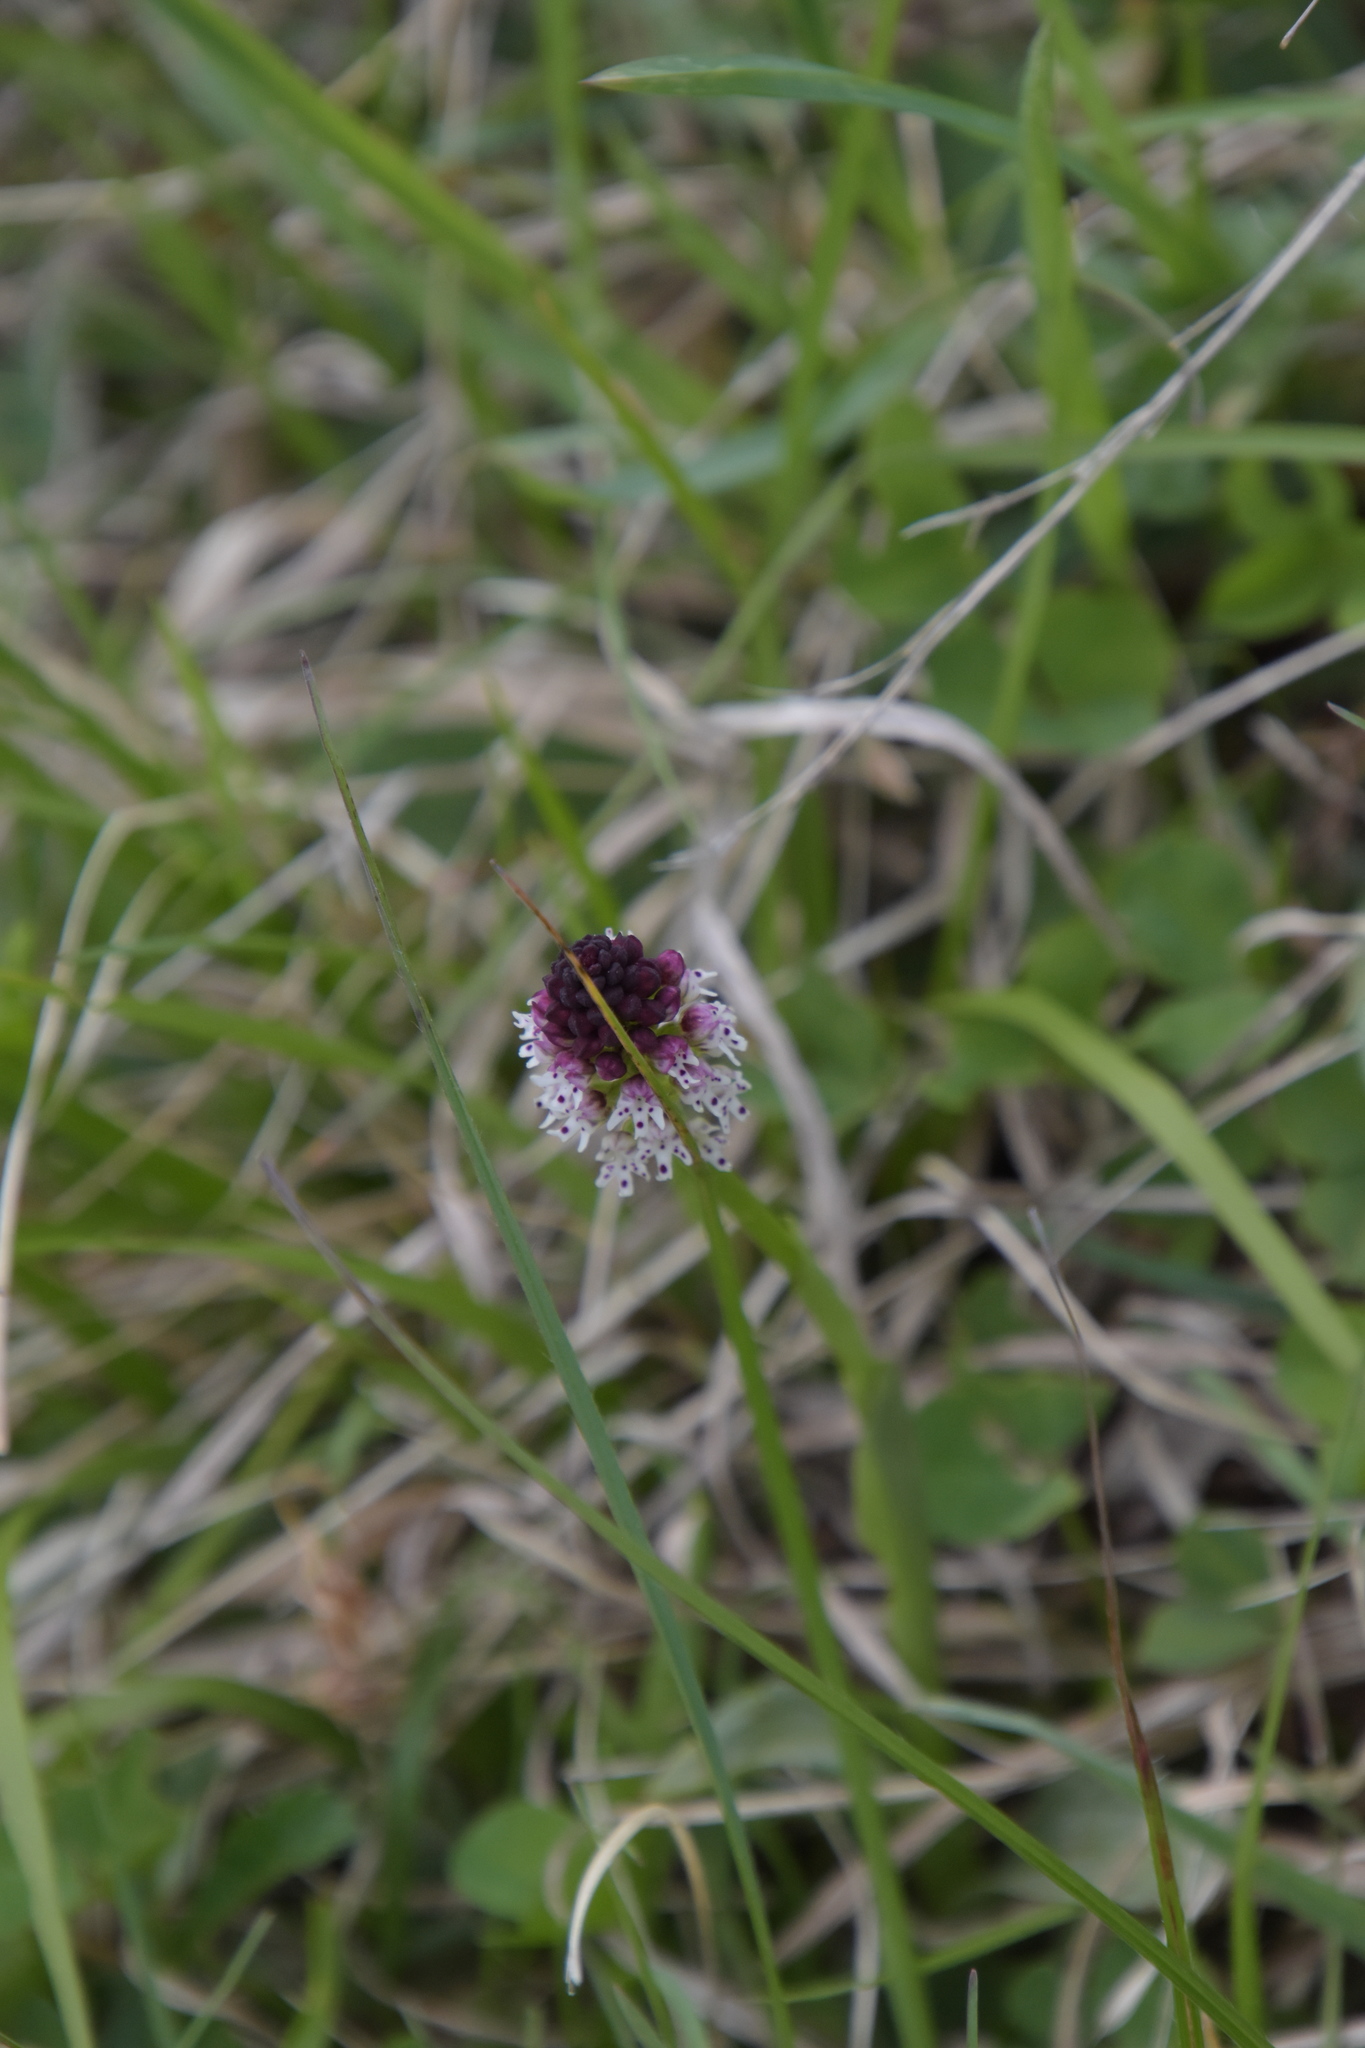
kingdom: Plantae
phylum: Tracheophyta
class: Liliopsida
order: Asparagales
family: Orchidaceae
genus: Neotinea
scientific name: Neotinea ustulata
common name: Burnt orchid
